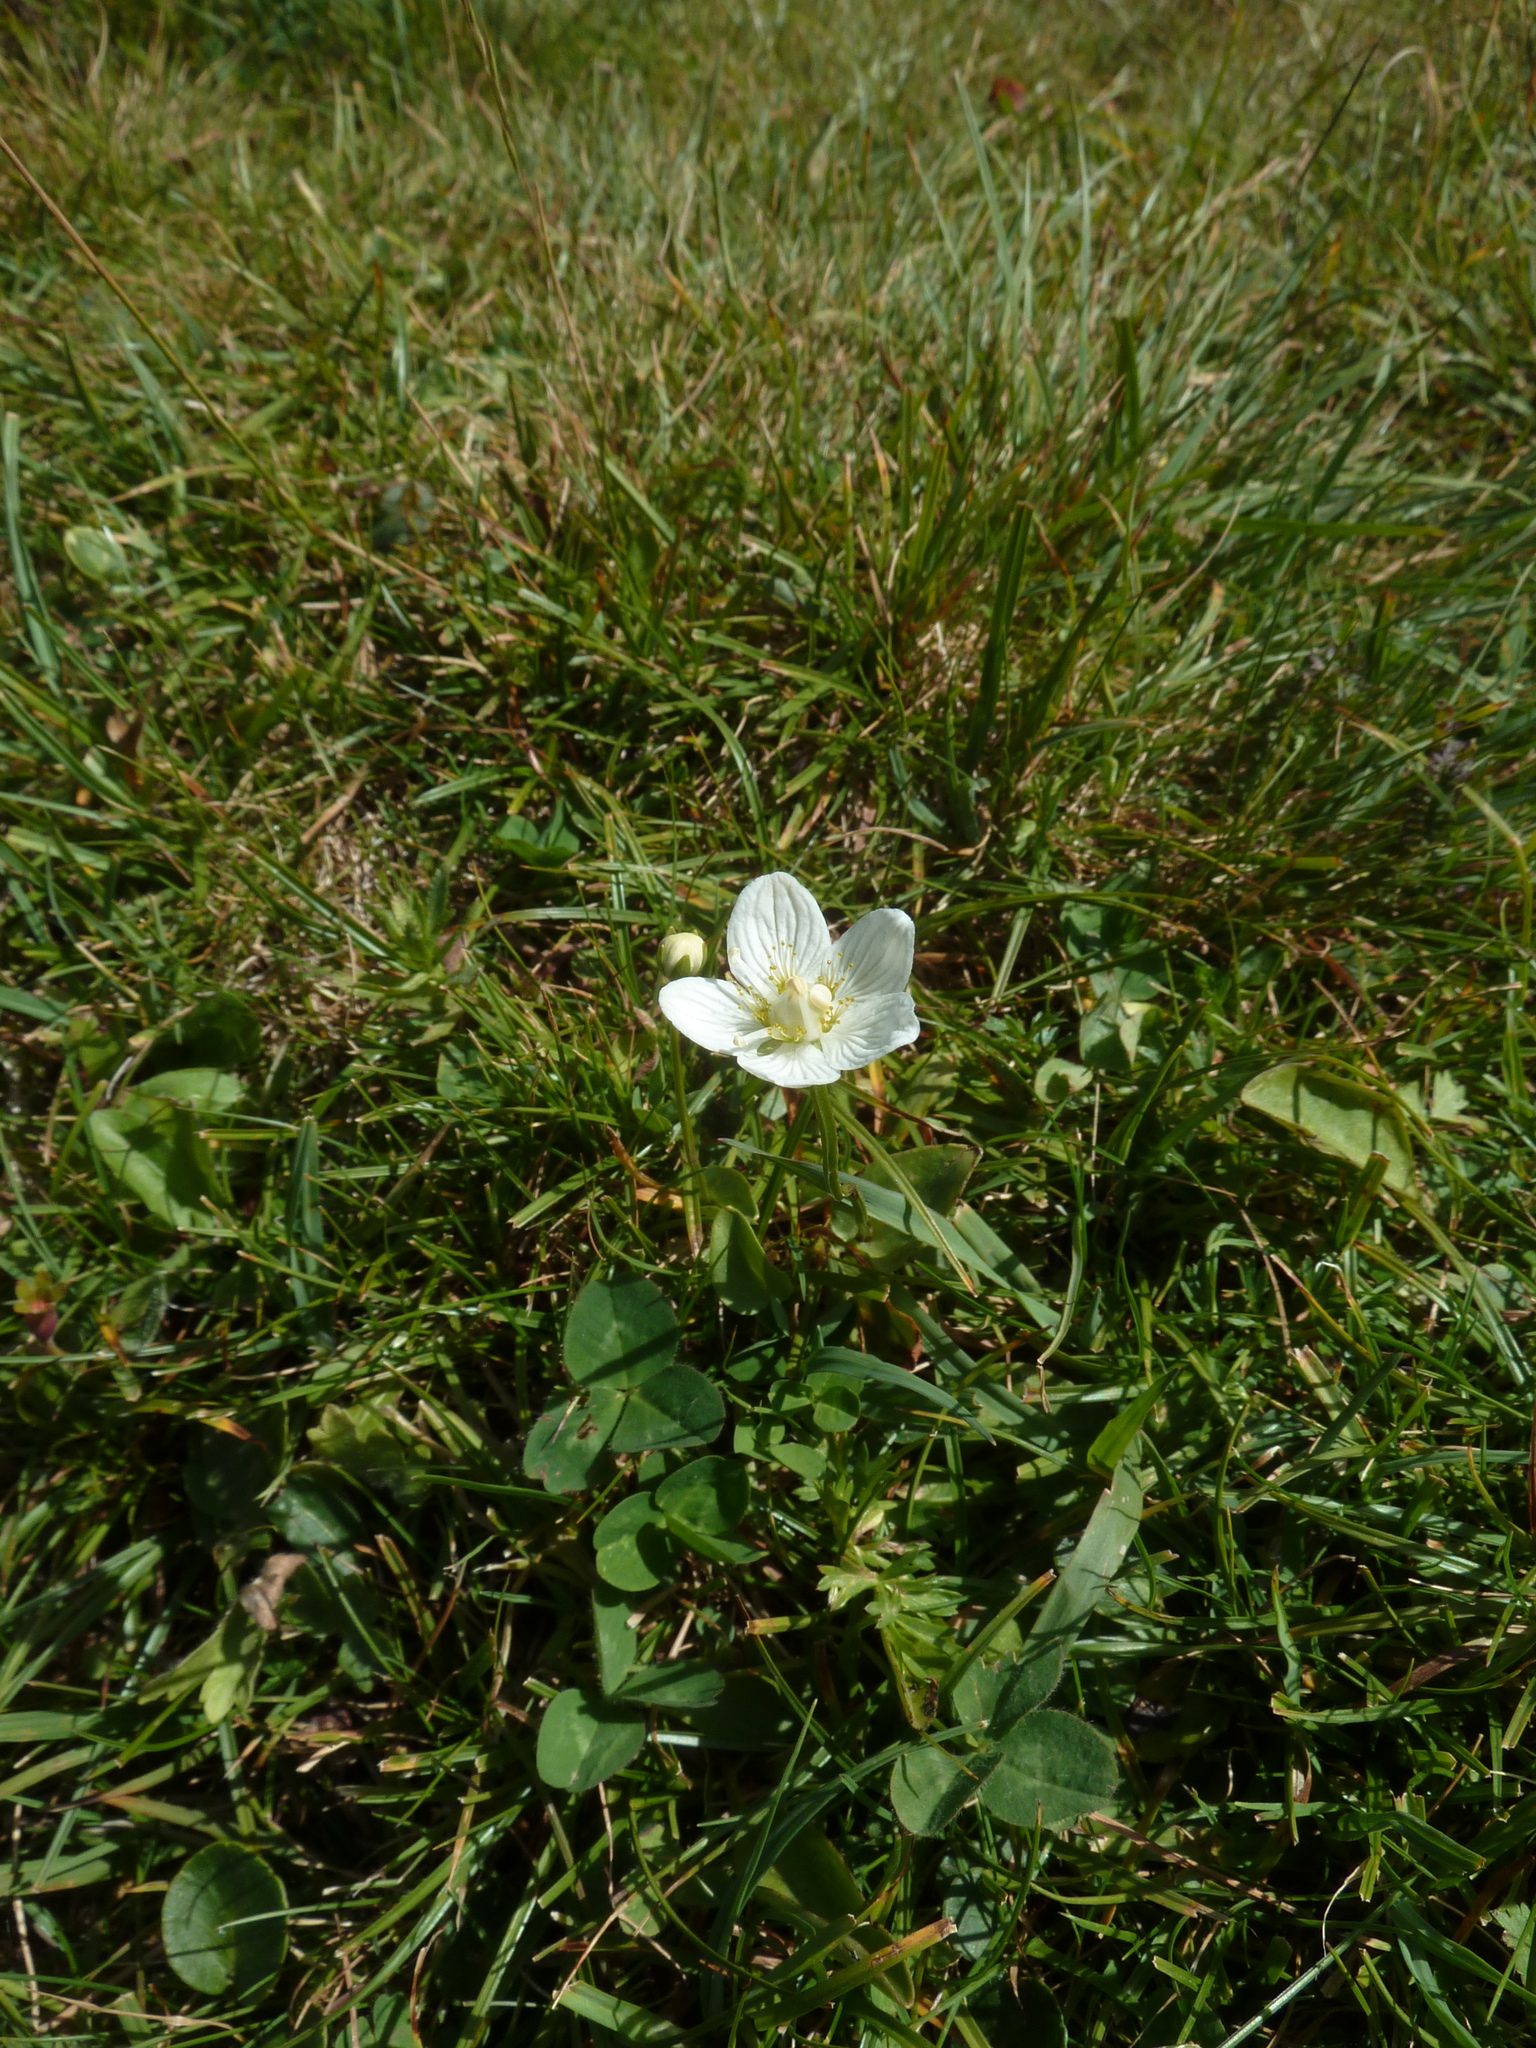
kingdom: Plantae
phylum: Tracheophyta
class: Magnoliopsida
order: Celastrales
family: Parnassiaceae
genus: Parnassia
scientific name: Parnassia palustris
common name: Grass-of-parnassus
